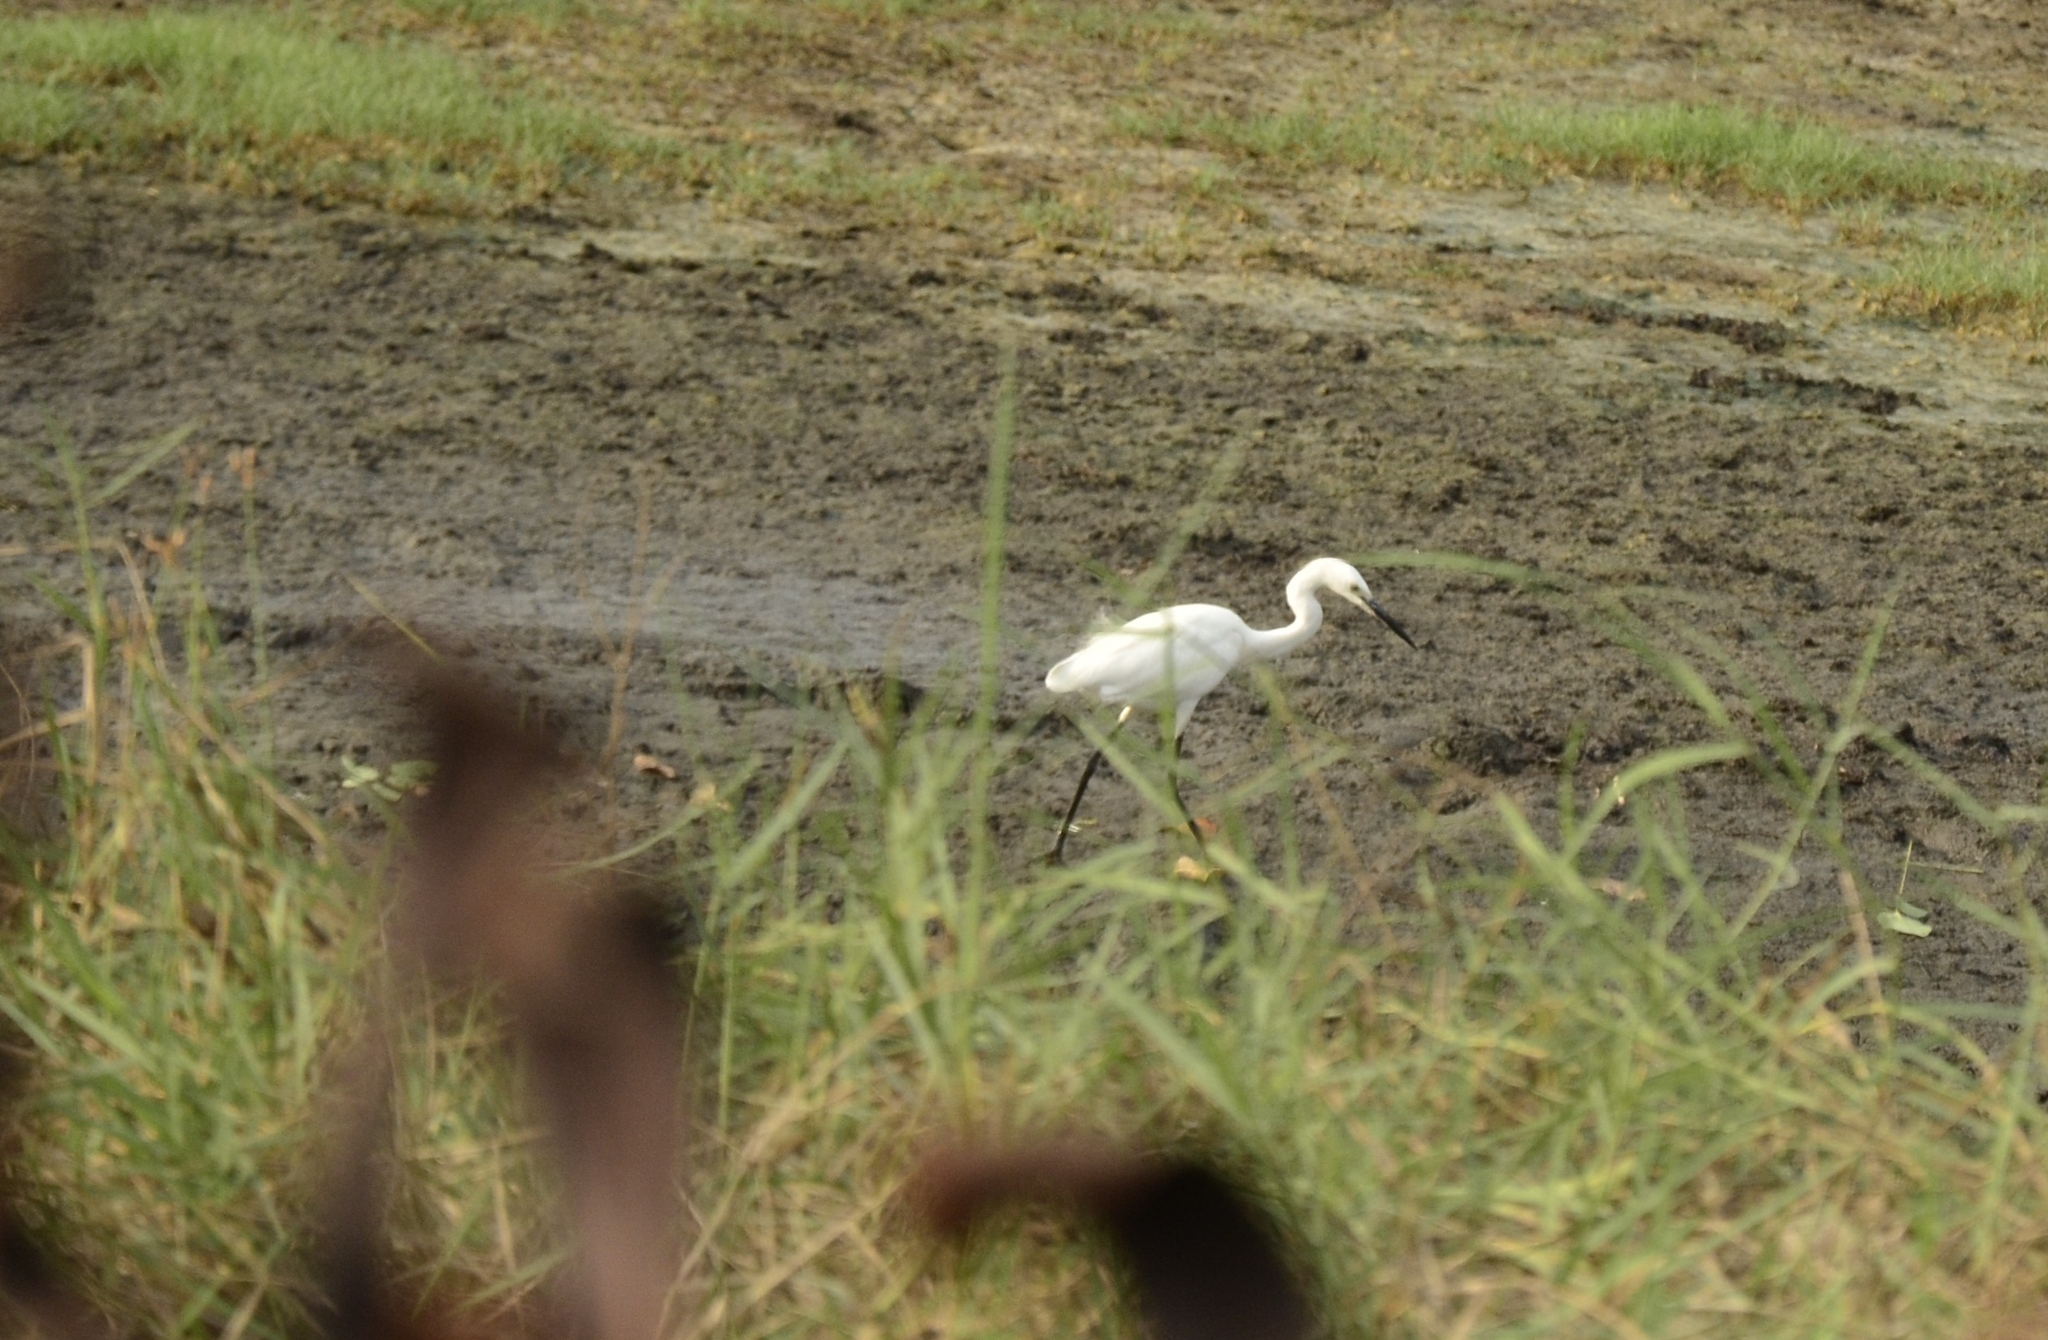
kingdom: Animalia
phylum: Chordata
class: Aves
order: Pelecaniformes
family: Ardeidae
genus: Egretta
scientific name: Egretta garzetta
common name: Little egret
